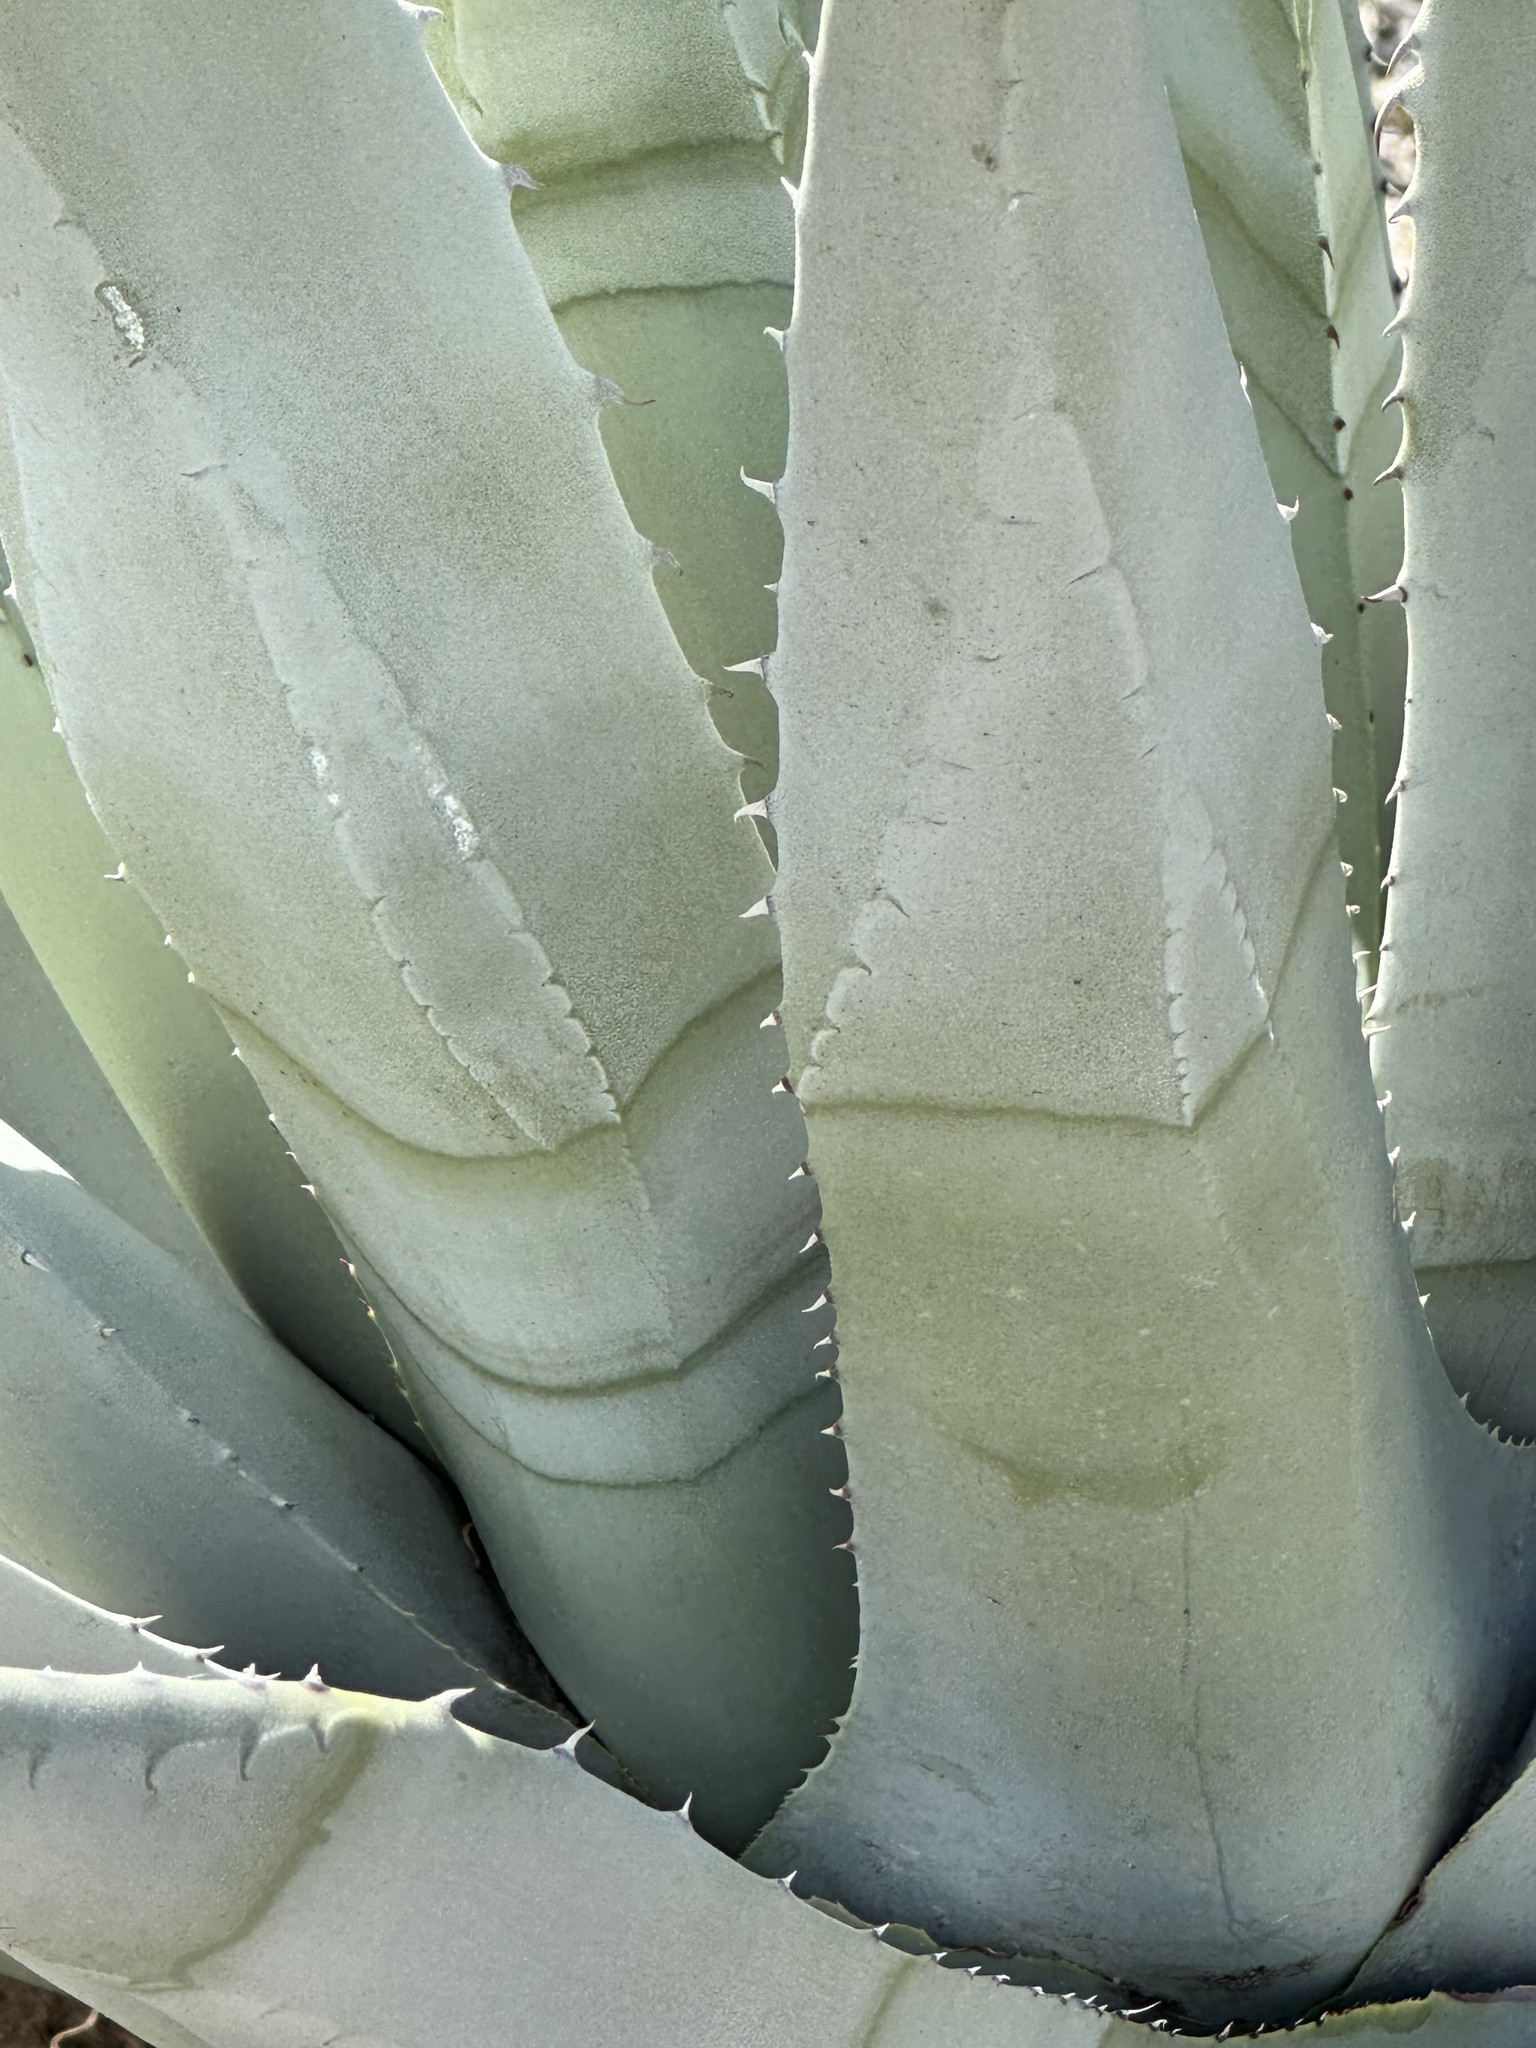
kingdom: Plantae
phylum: Tracheophyta
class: Liliopsida
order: Asparagales
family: Asparagaceae
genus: Agave
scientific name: Agave deserti
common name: Desert agave
